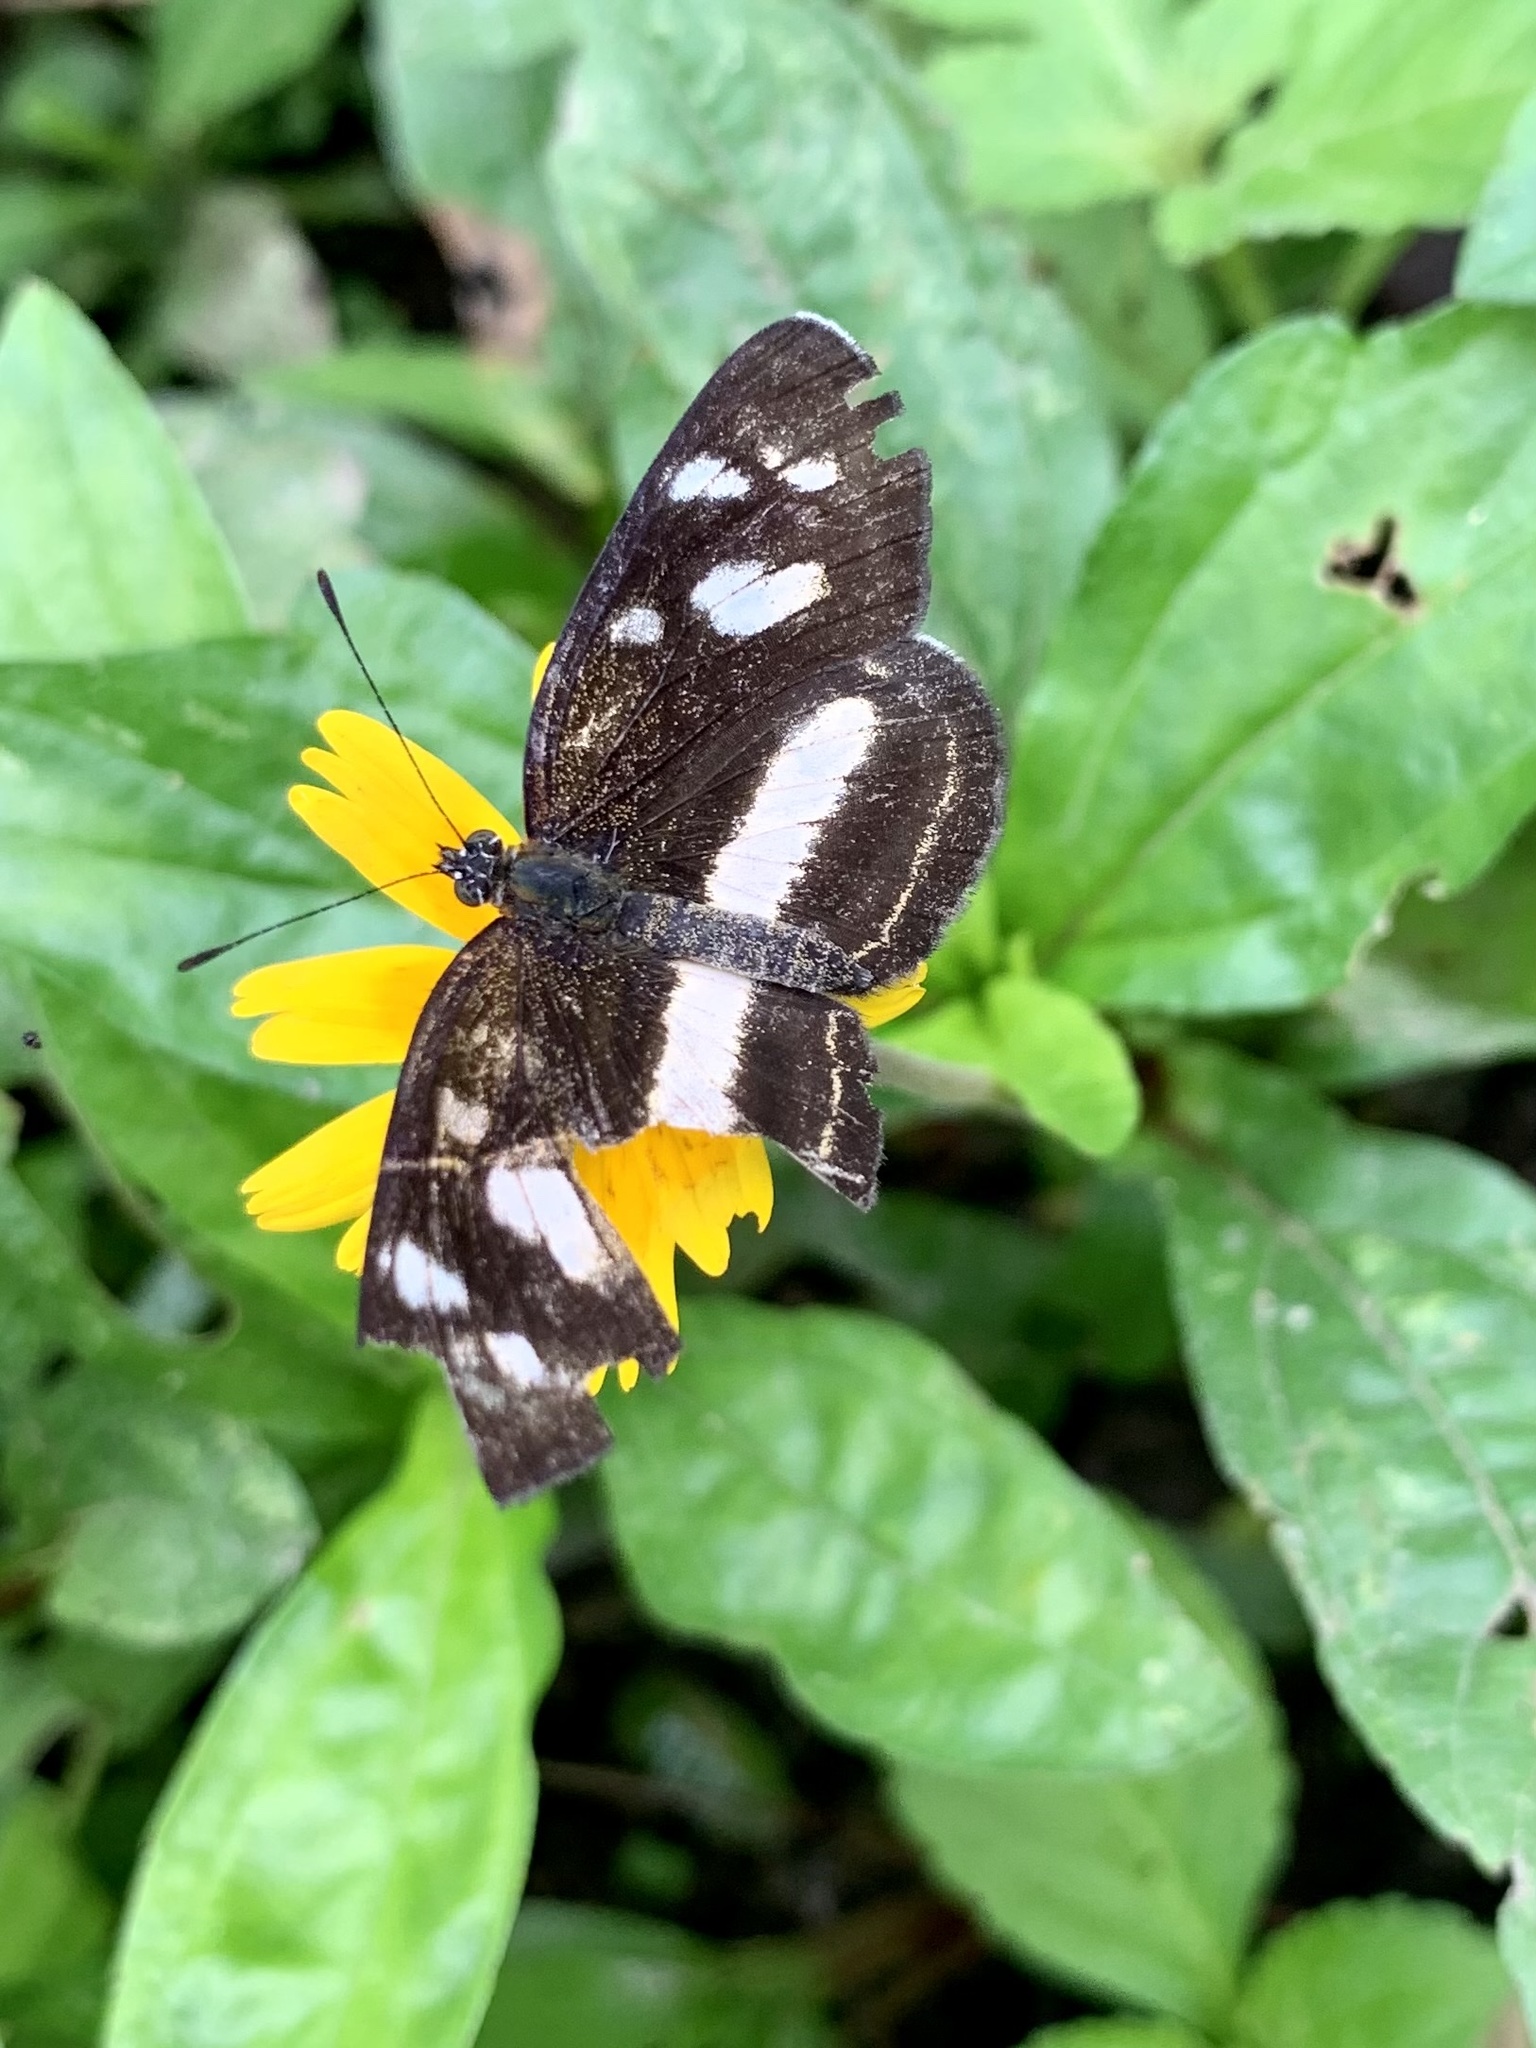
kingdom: Animalia
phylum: Arthropoda
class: Insecta
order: Lepidoptera
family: Nymphalidae
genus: Eresia
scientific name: Eresia clio
